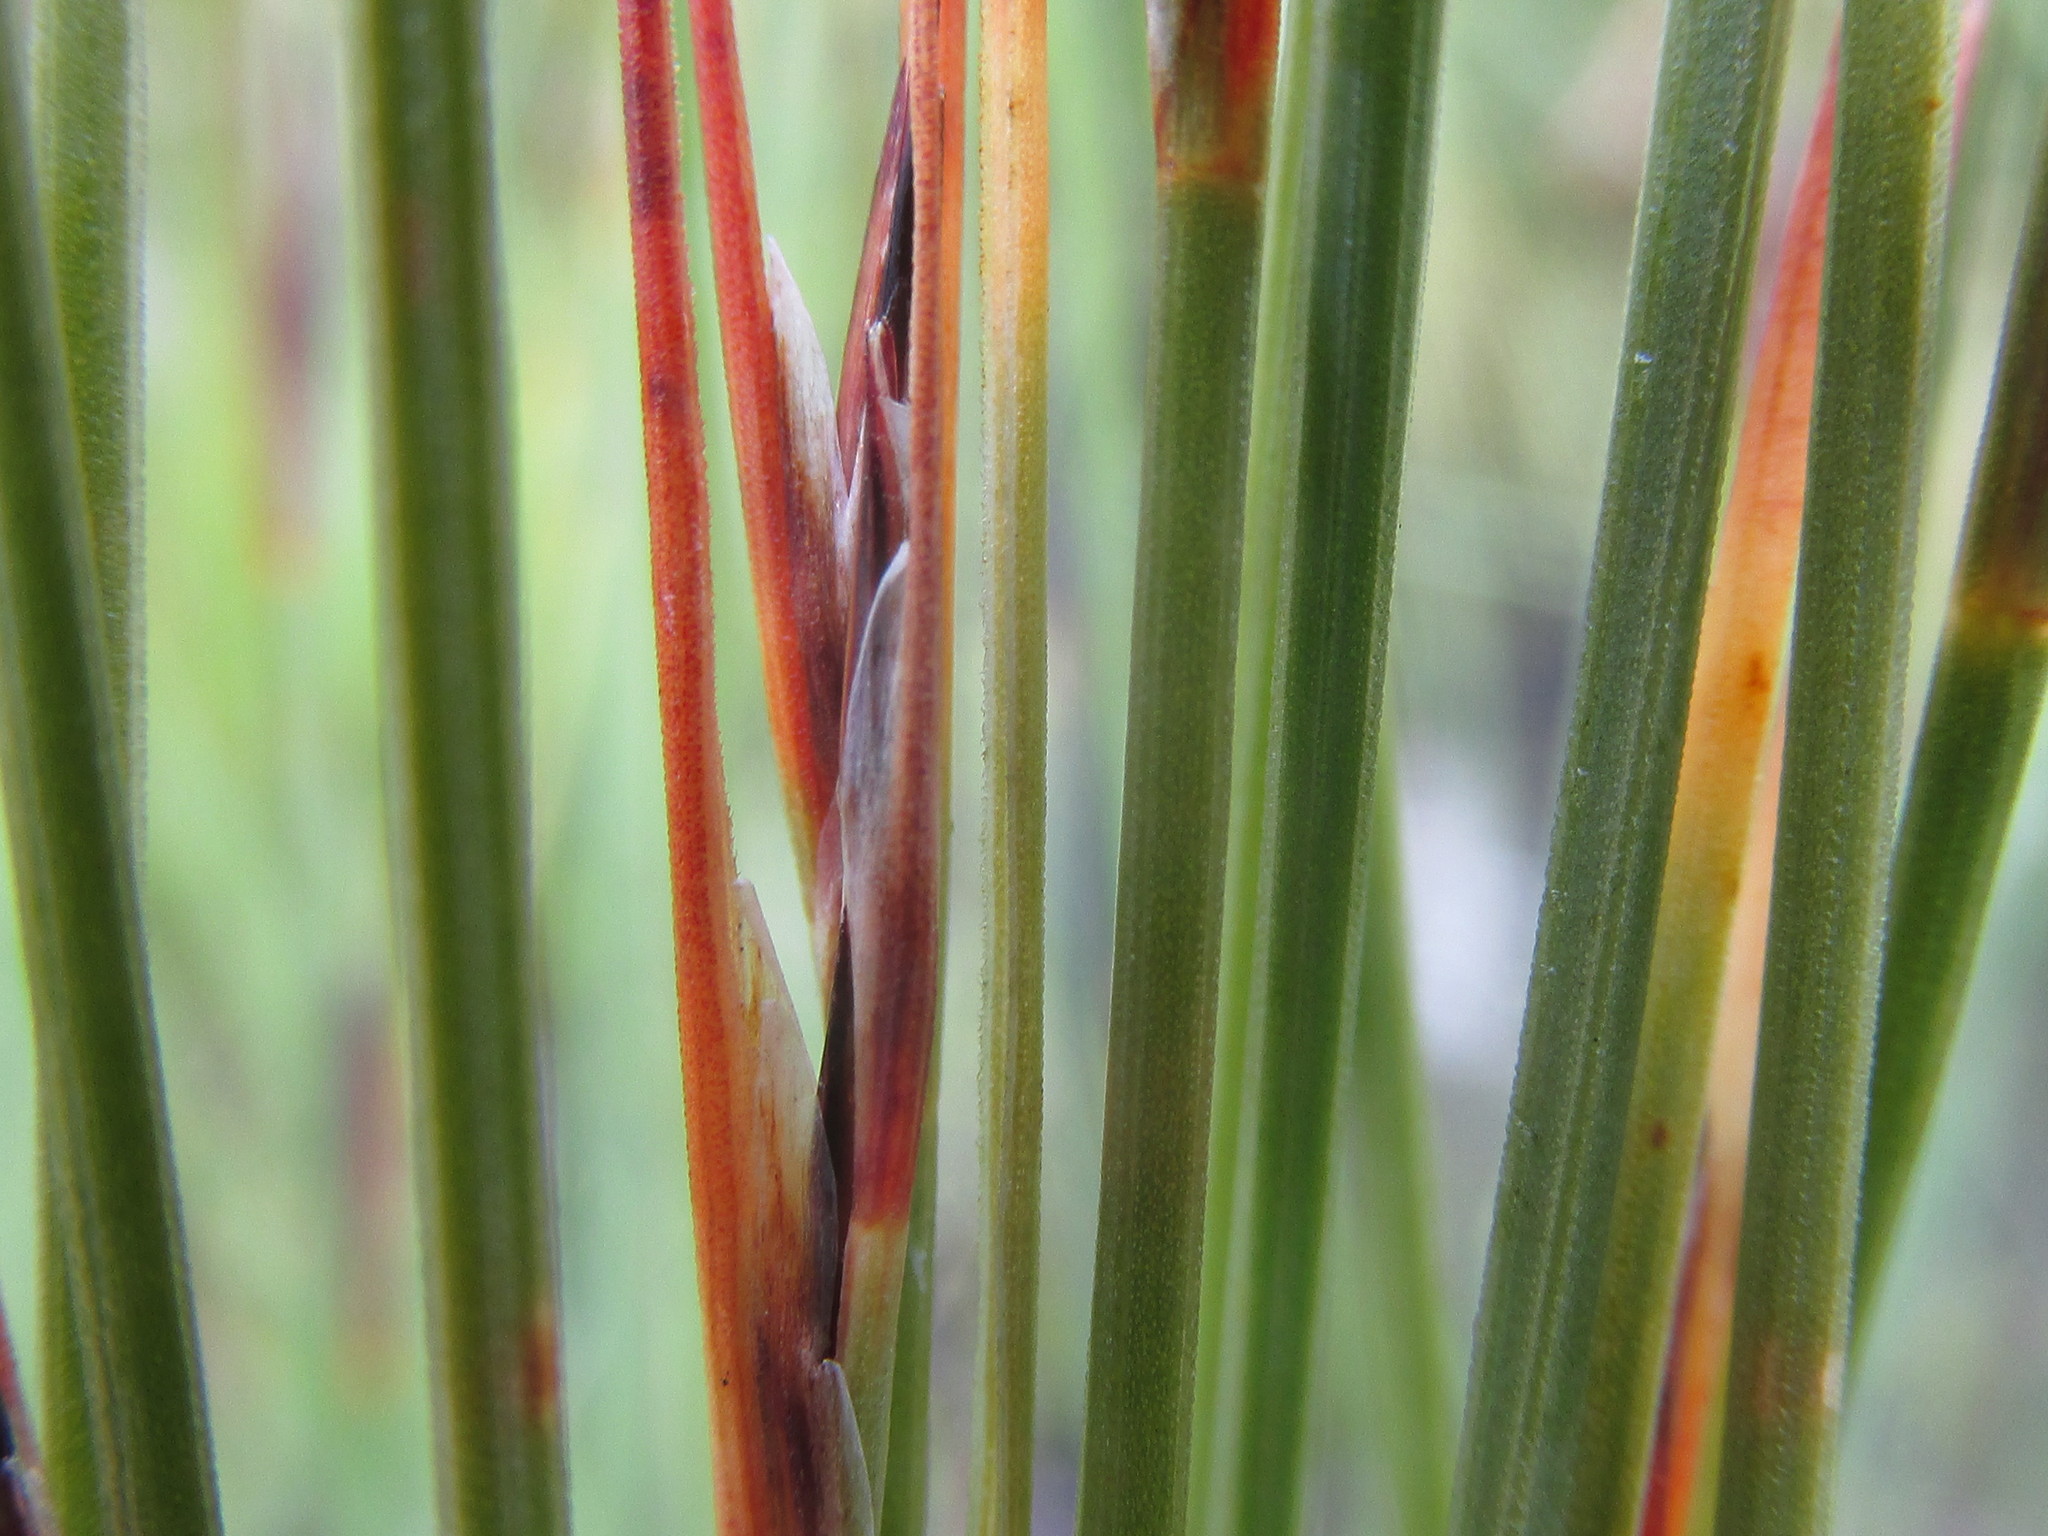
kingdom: Plantae
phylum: Tracheophyta
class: Liliopsida
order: Poales
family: Cyperaceae
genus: Schoenus
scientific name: Schoenus selinae
